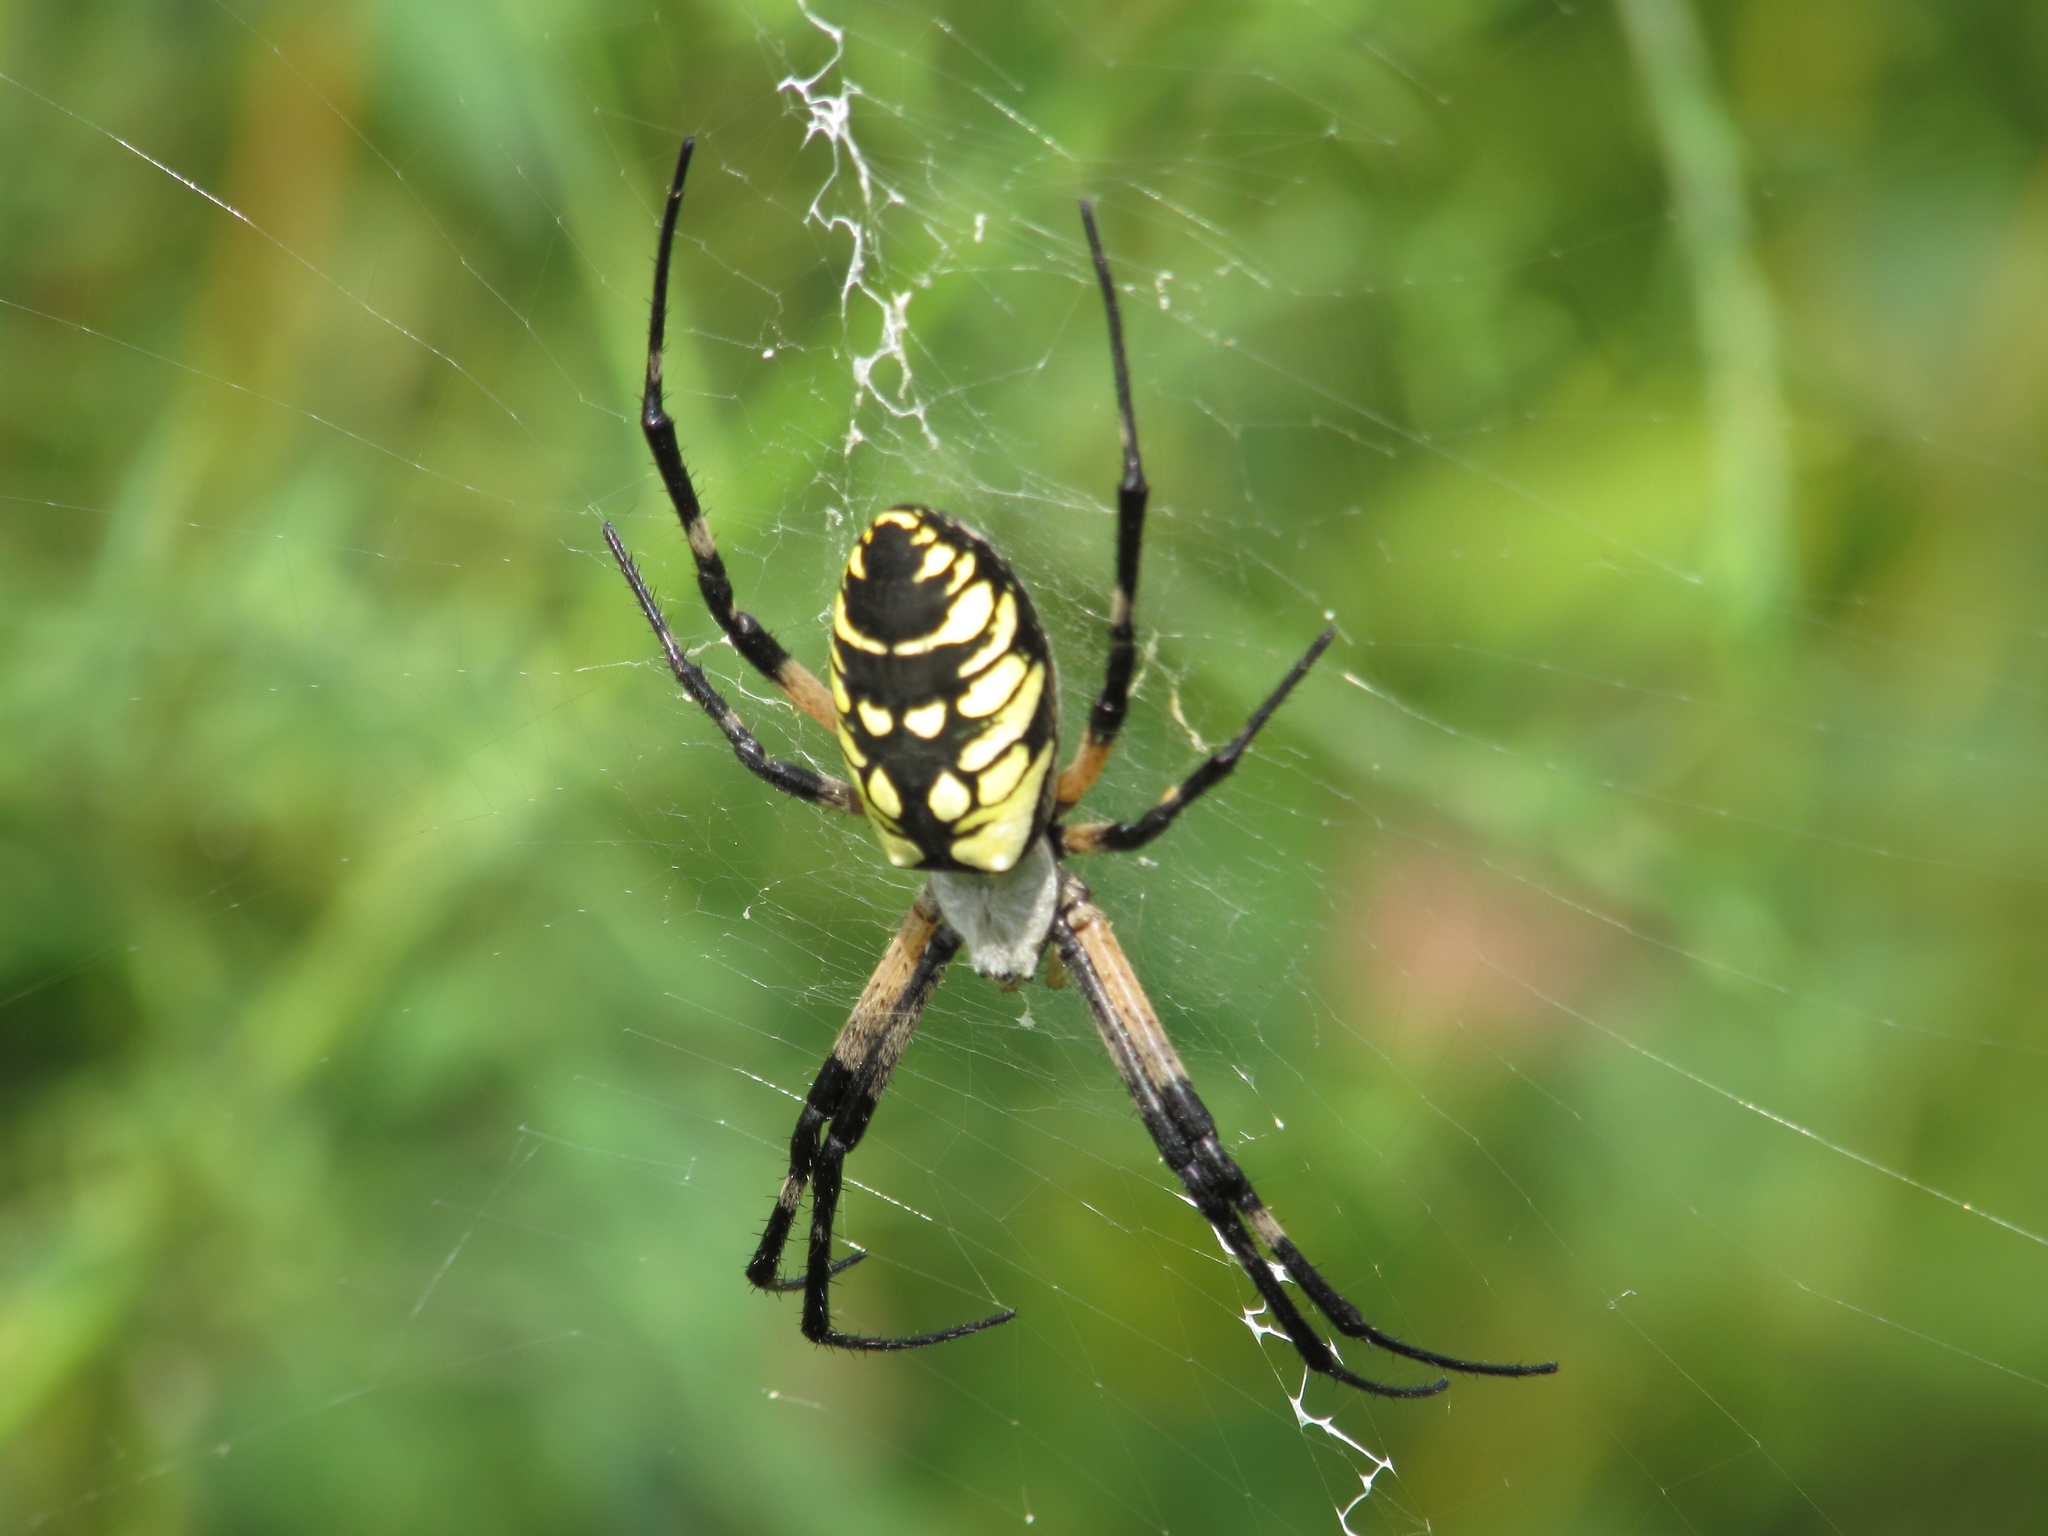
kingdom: Animalia
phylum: Arthropoda
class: Arachnida
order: Araneae
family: Araneidae
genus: Argiope
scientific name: Argiope aurantia
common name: Orb weavers
